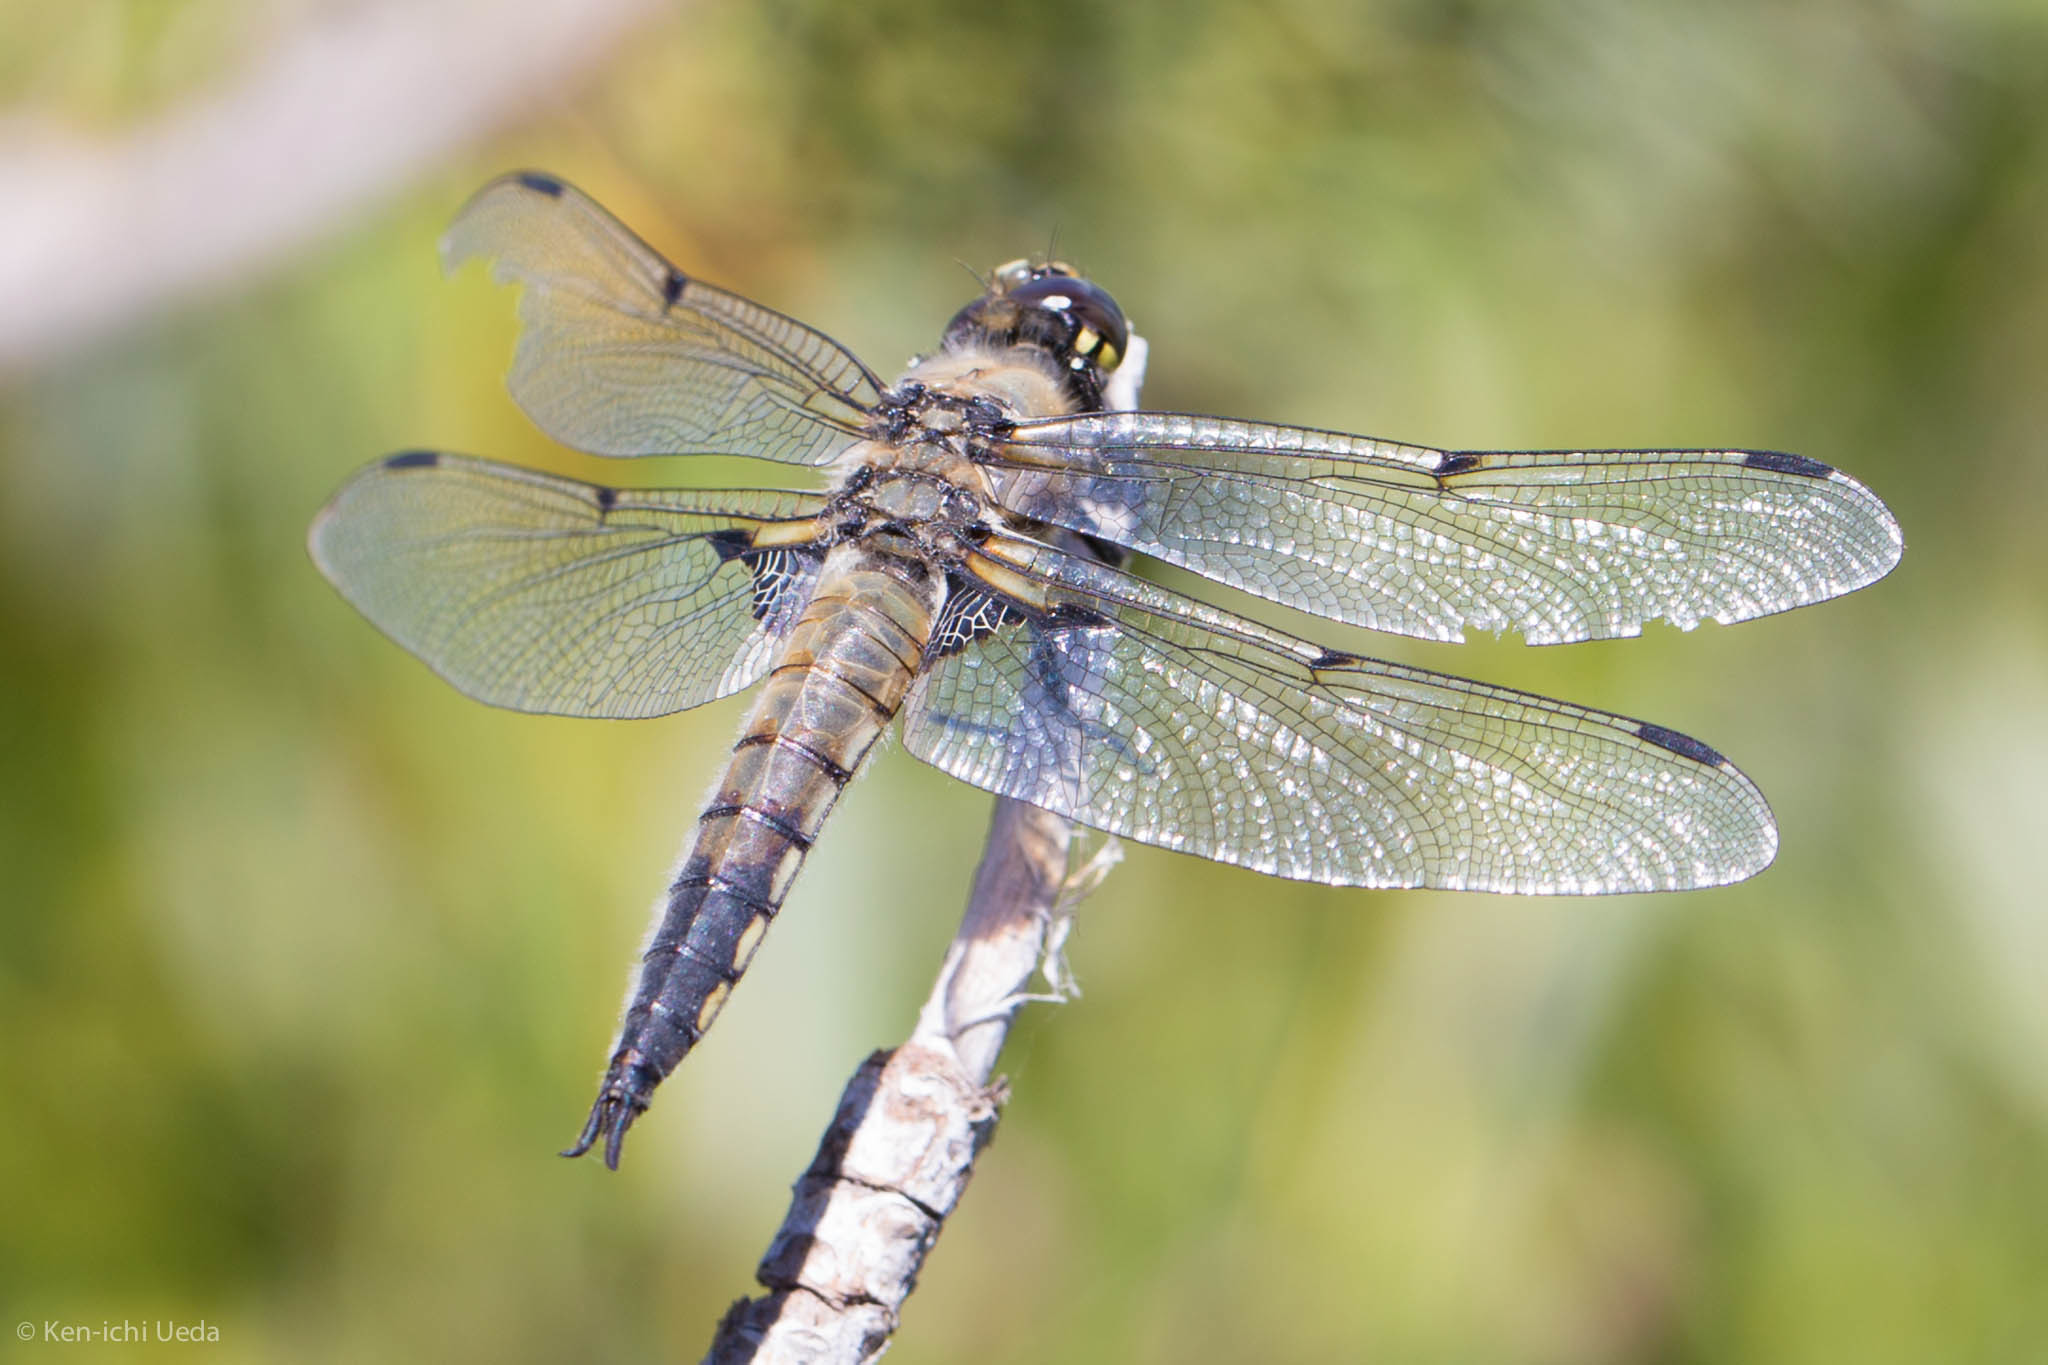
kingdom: Animalia
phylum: Arthropoda
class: Insecta
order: Odonata
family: Libellulidae
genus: Libellula
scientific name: Libellula quadrimaculata
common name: Four-spotted chaser
